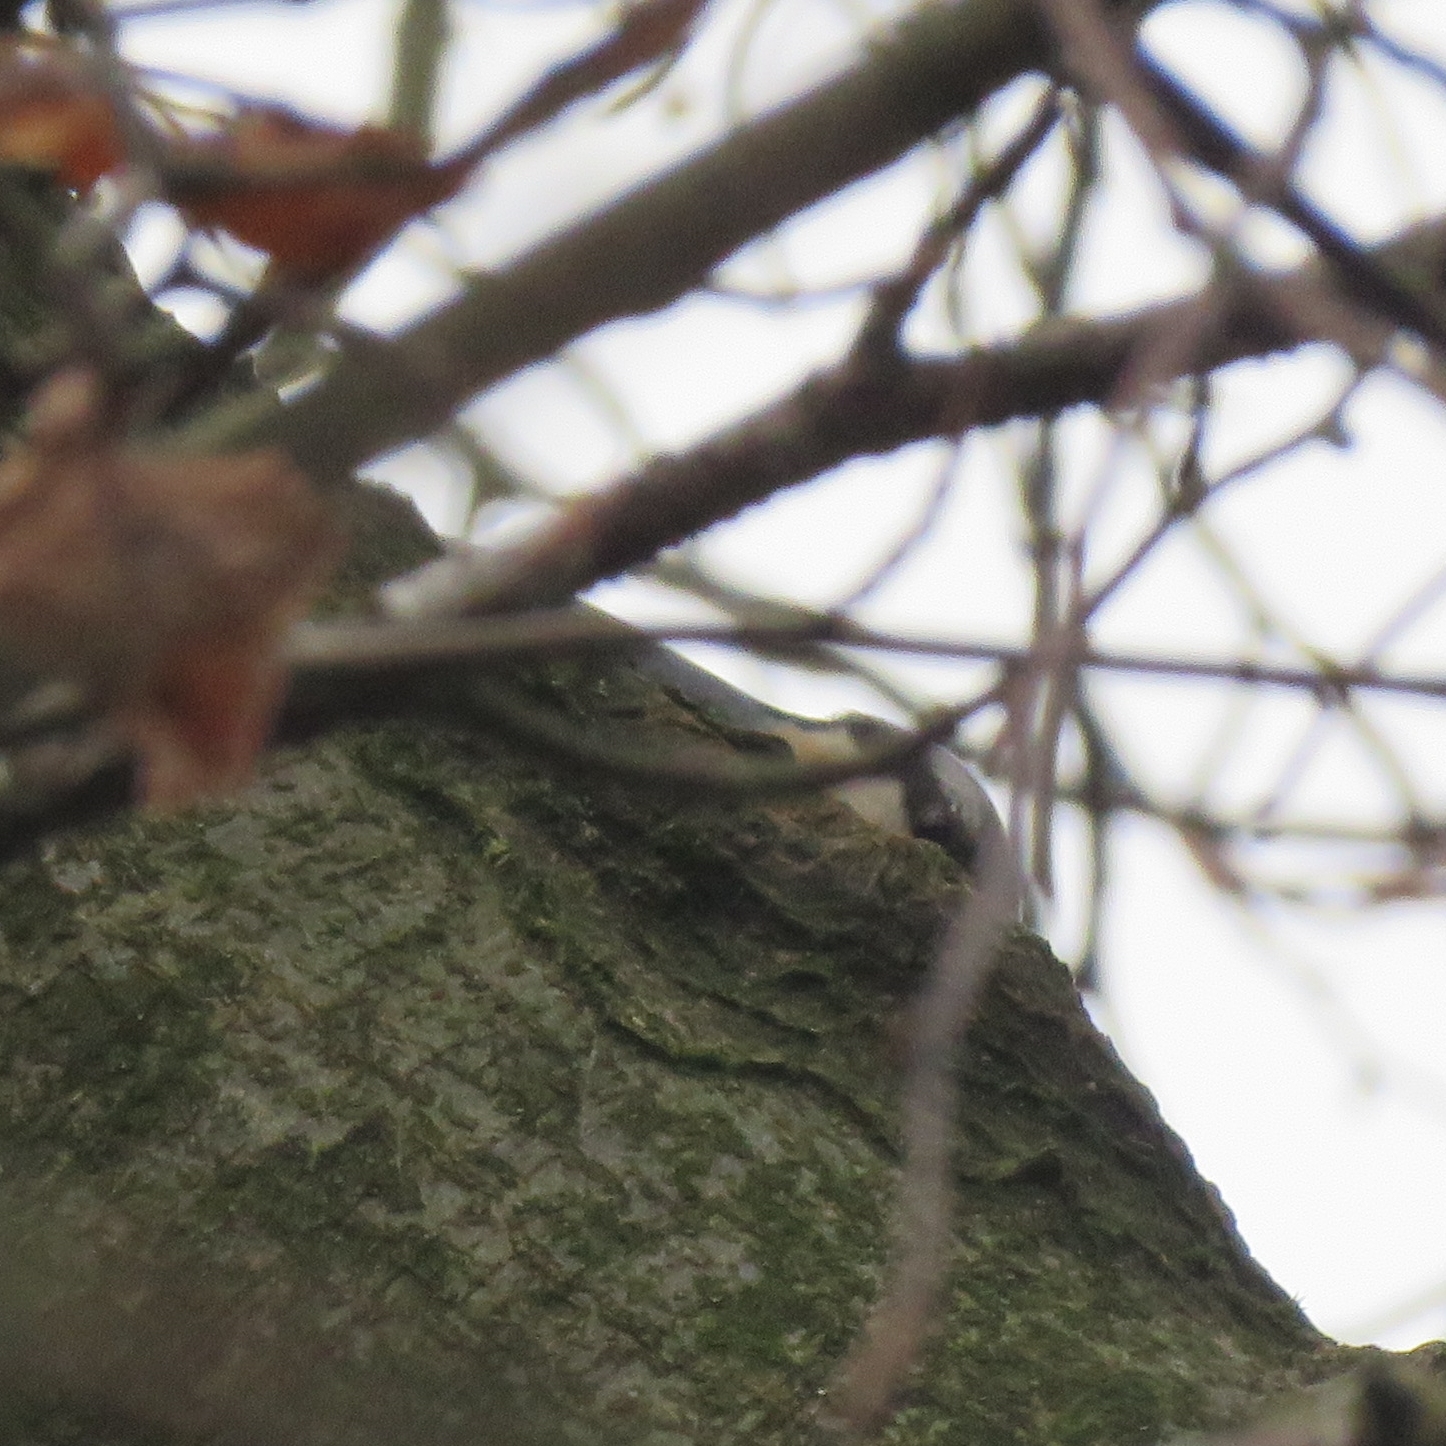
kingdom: Animalia
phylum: Chordata
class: Aves
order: Passeriformes
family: Sittidae
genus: Sitta
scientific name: Sitta europaea
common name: Eurasian nuthatch
